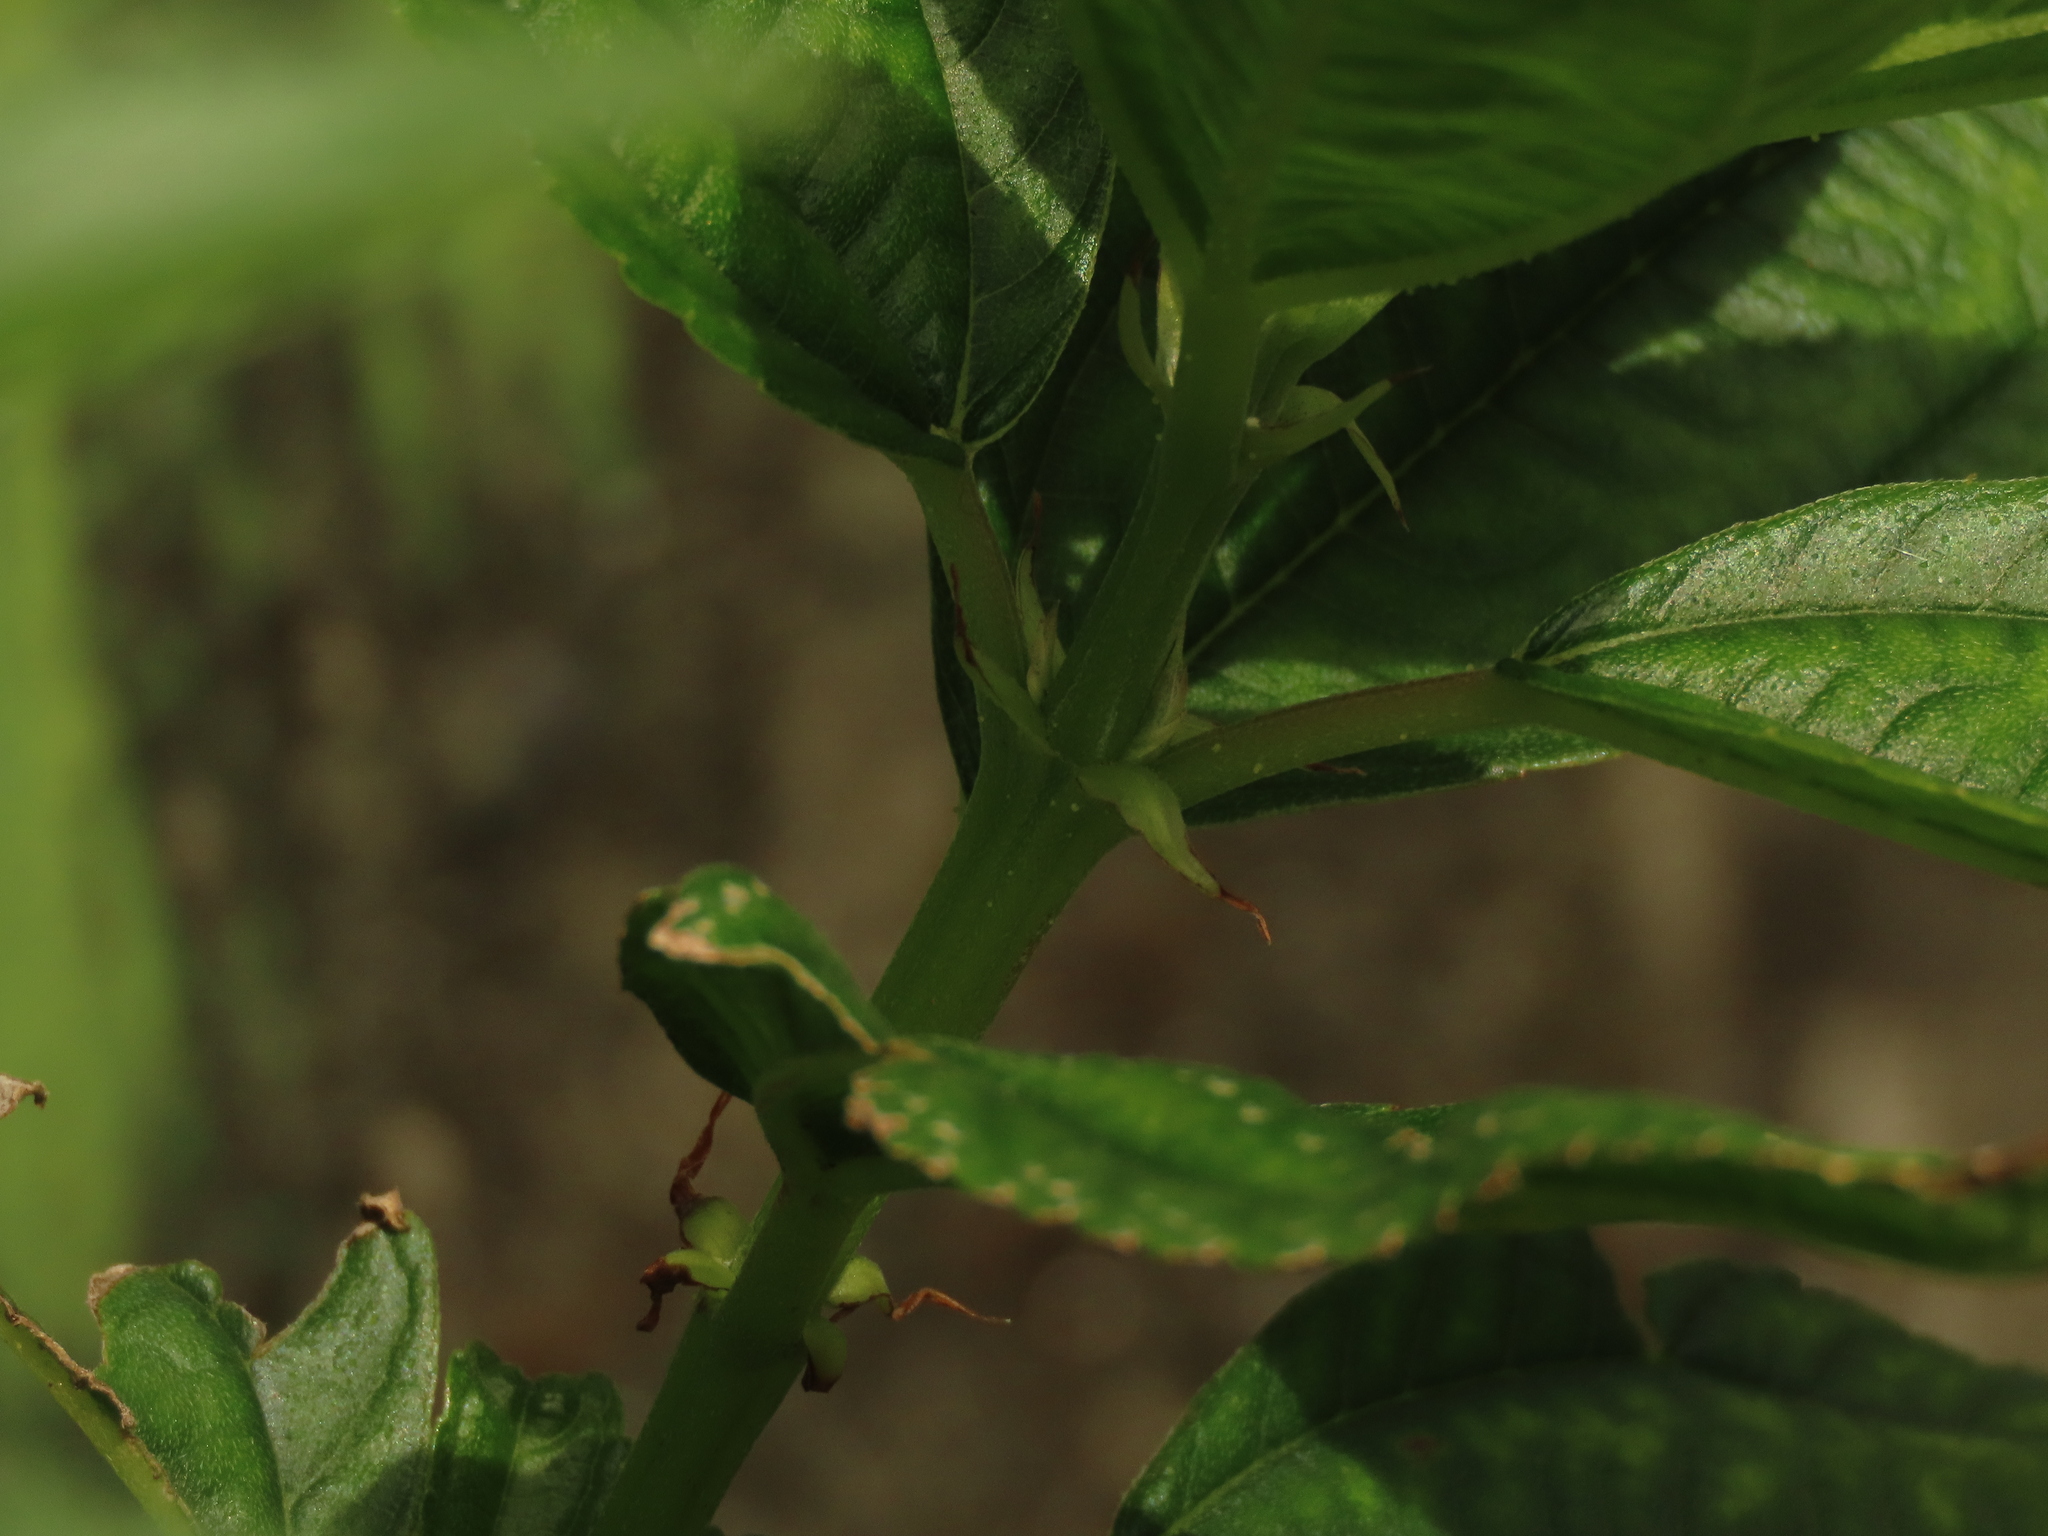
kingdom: Plantae
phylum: Tracheophyta
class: Magnoliopsida
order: Rosales
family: Urticaceae
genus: Boehmeria
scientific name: Boehmeria densiflora
